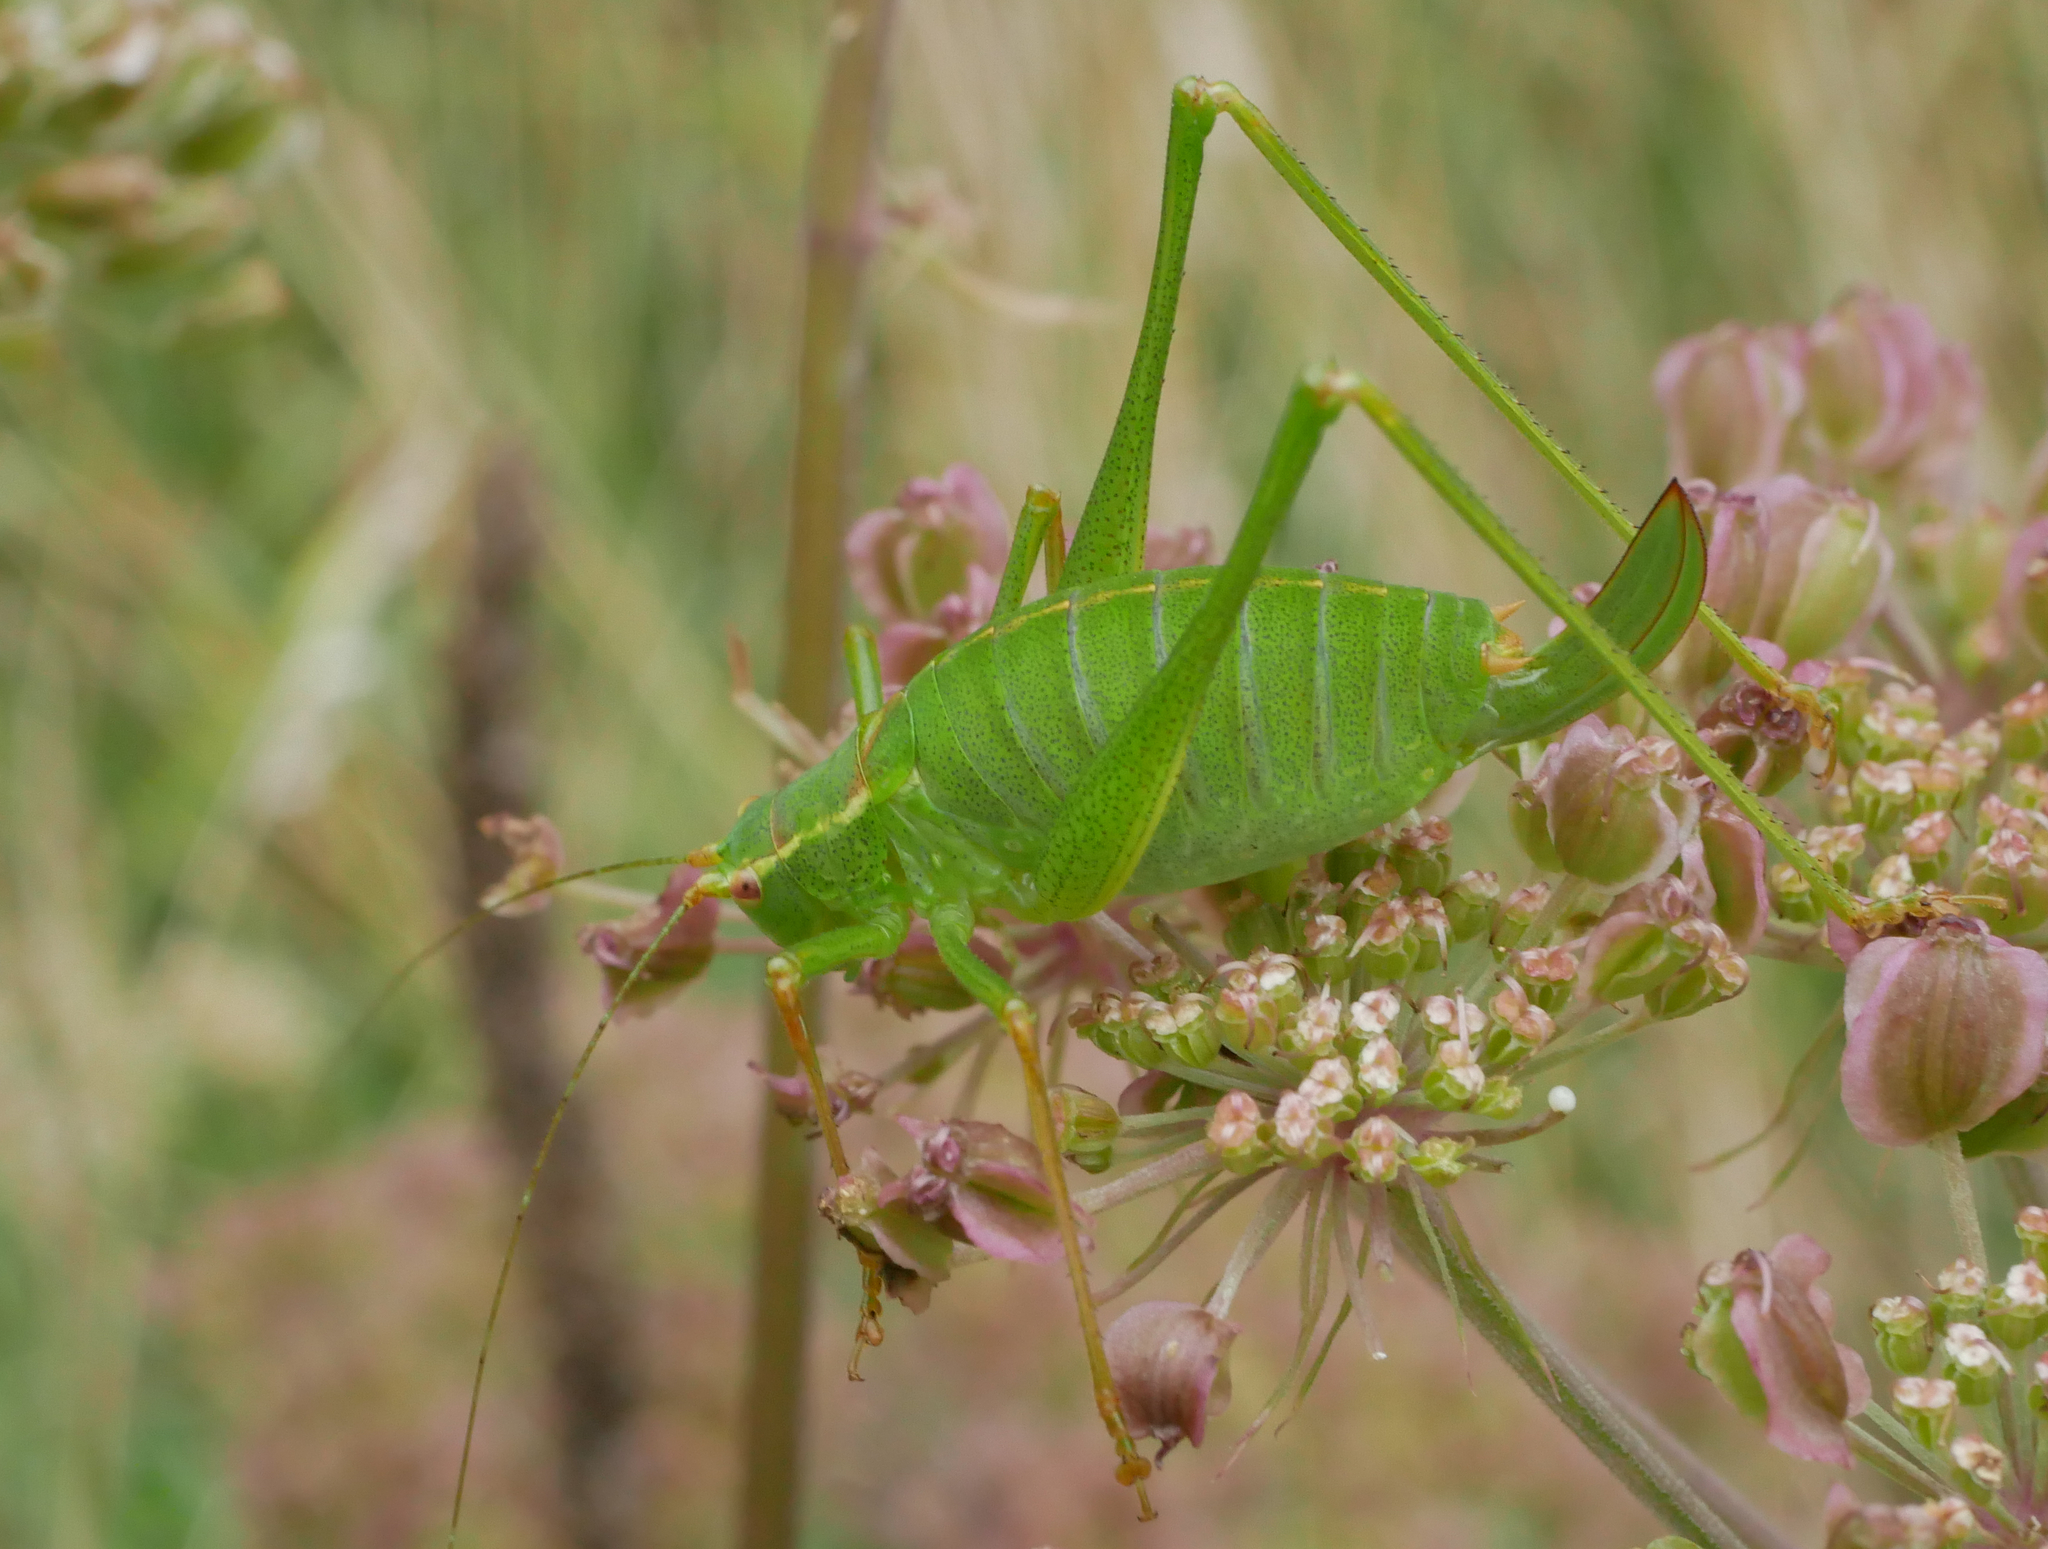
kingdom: Animalia
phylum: Arthropoda
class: Insecta
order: Orthoptera
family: Tettigoniidae
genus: Leptophyes
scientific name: Leptophyes punctatissima
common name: Speckled bush-cricket
